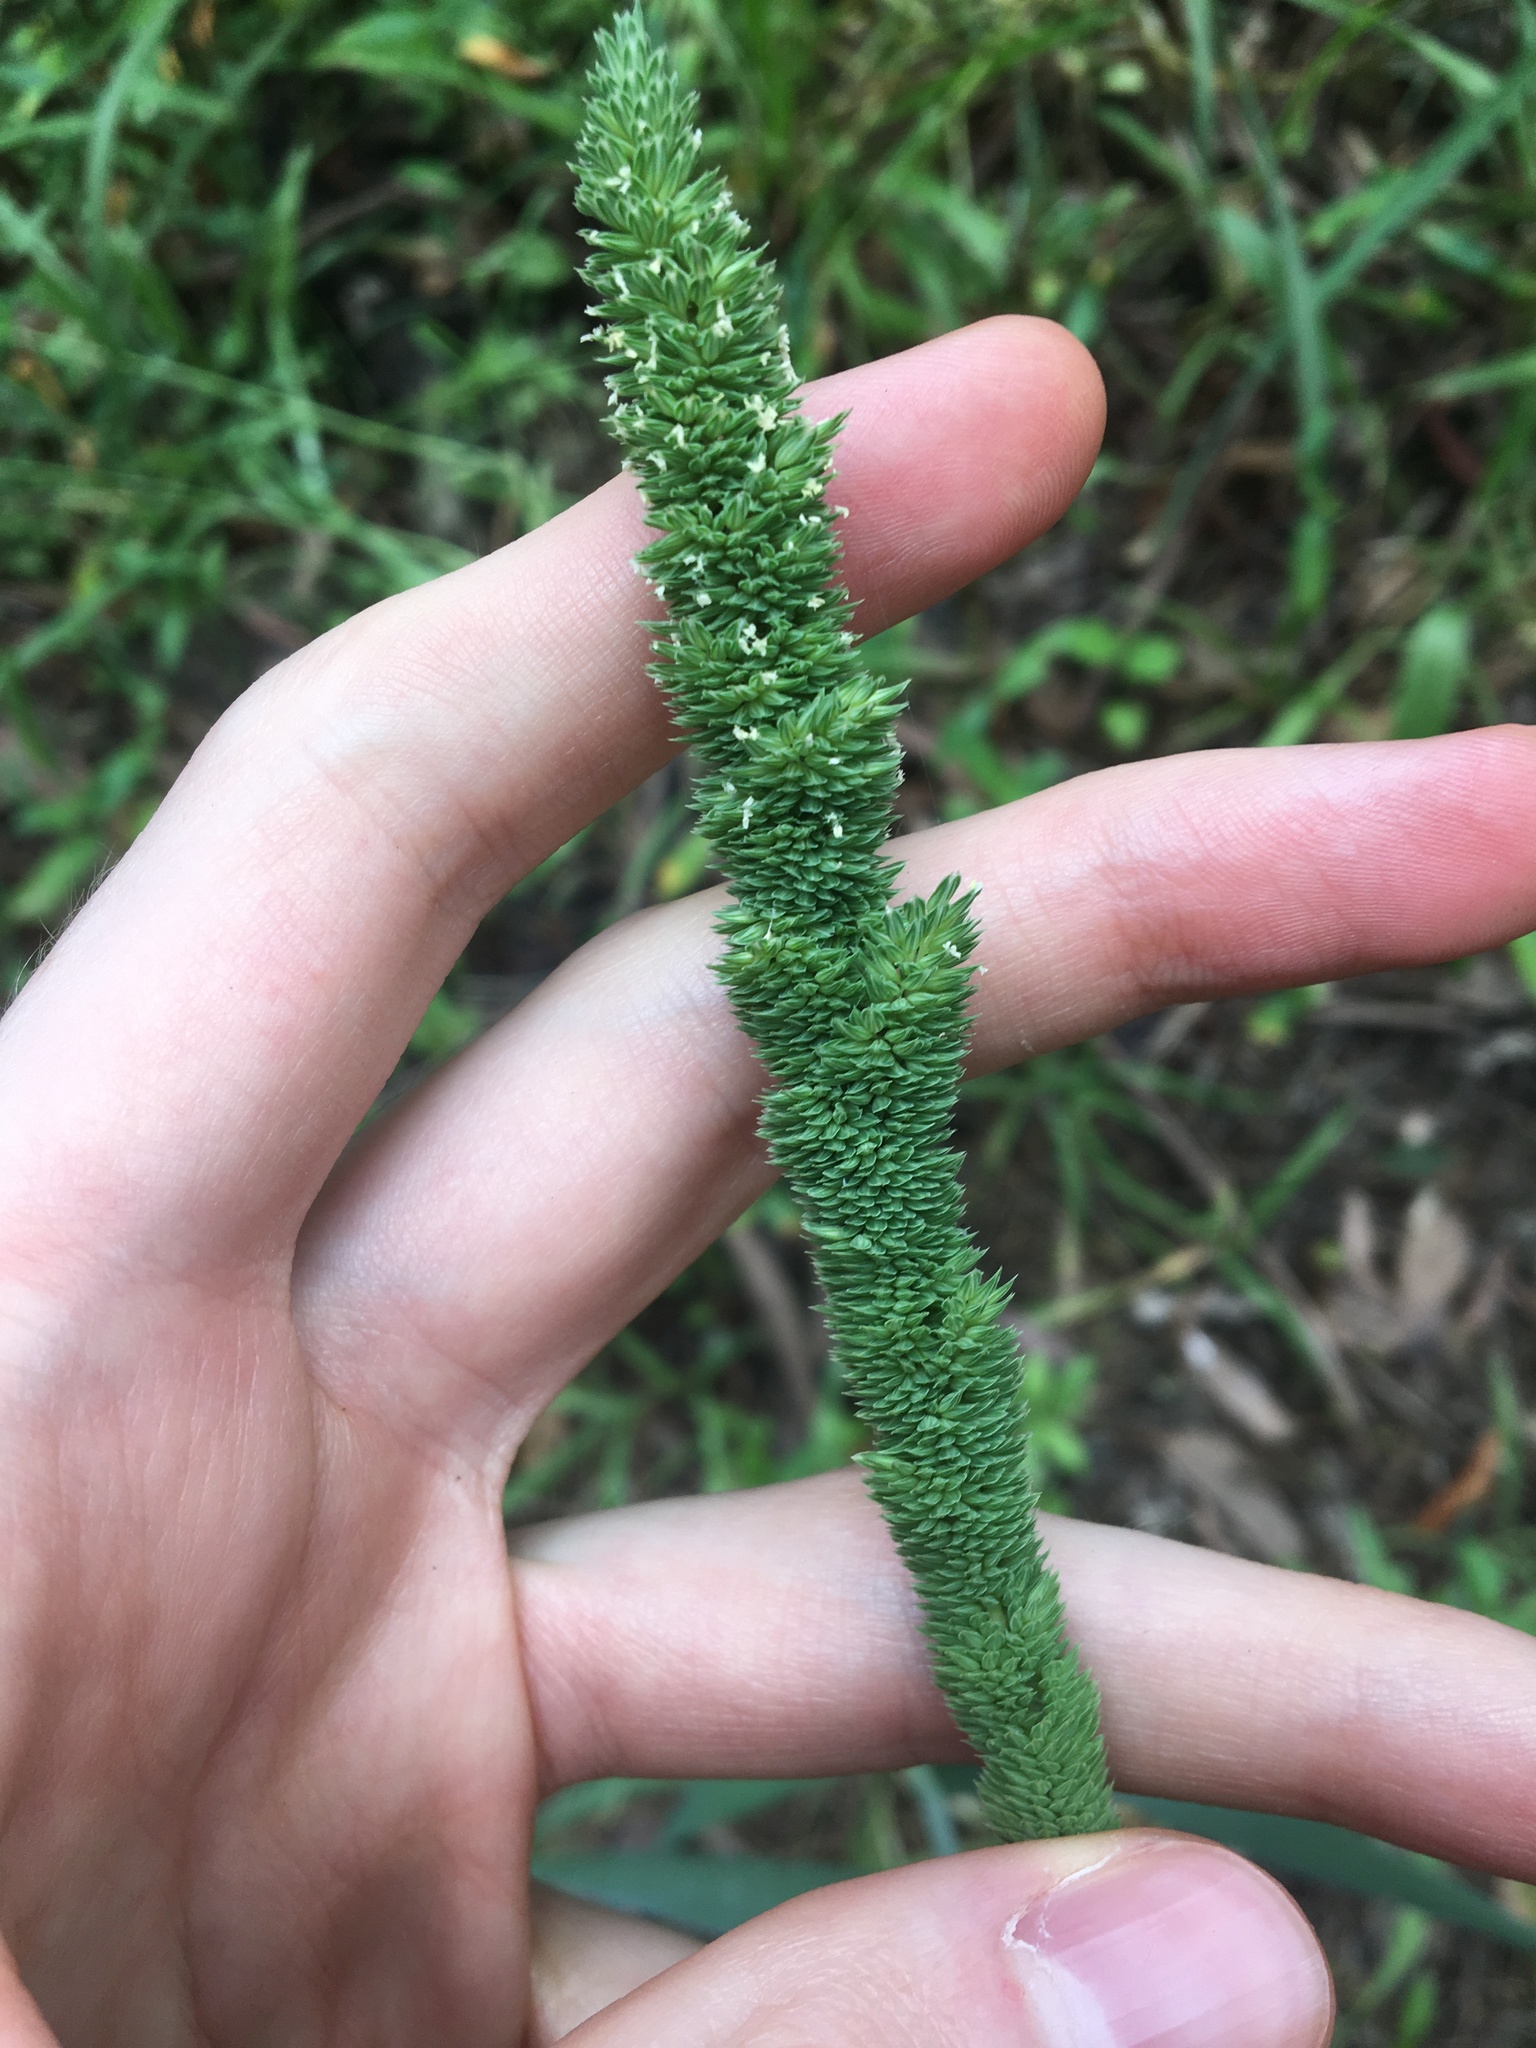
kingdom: Plantae
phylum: Tracheophyta
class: Liliopsida
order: Poales
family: Poaceae
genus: Phalaris
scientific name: Phalaris aquatica
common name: Bulbous canary-grass
